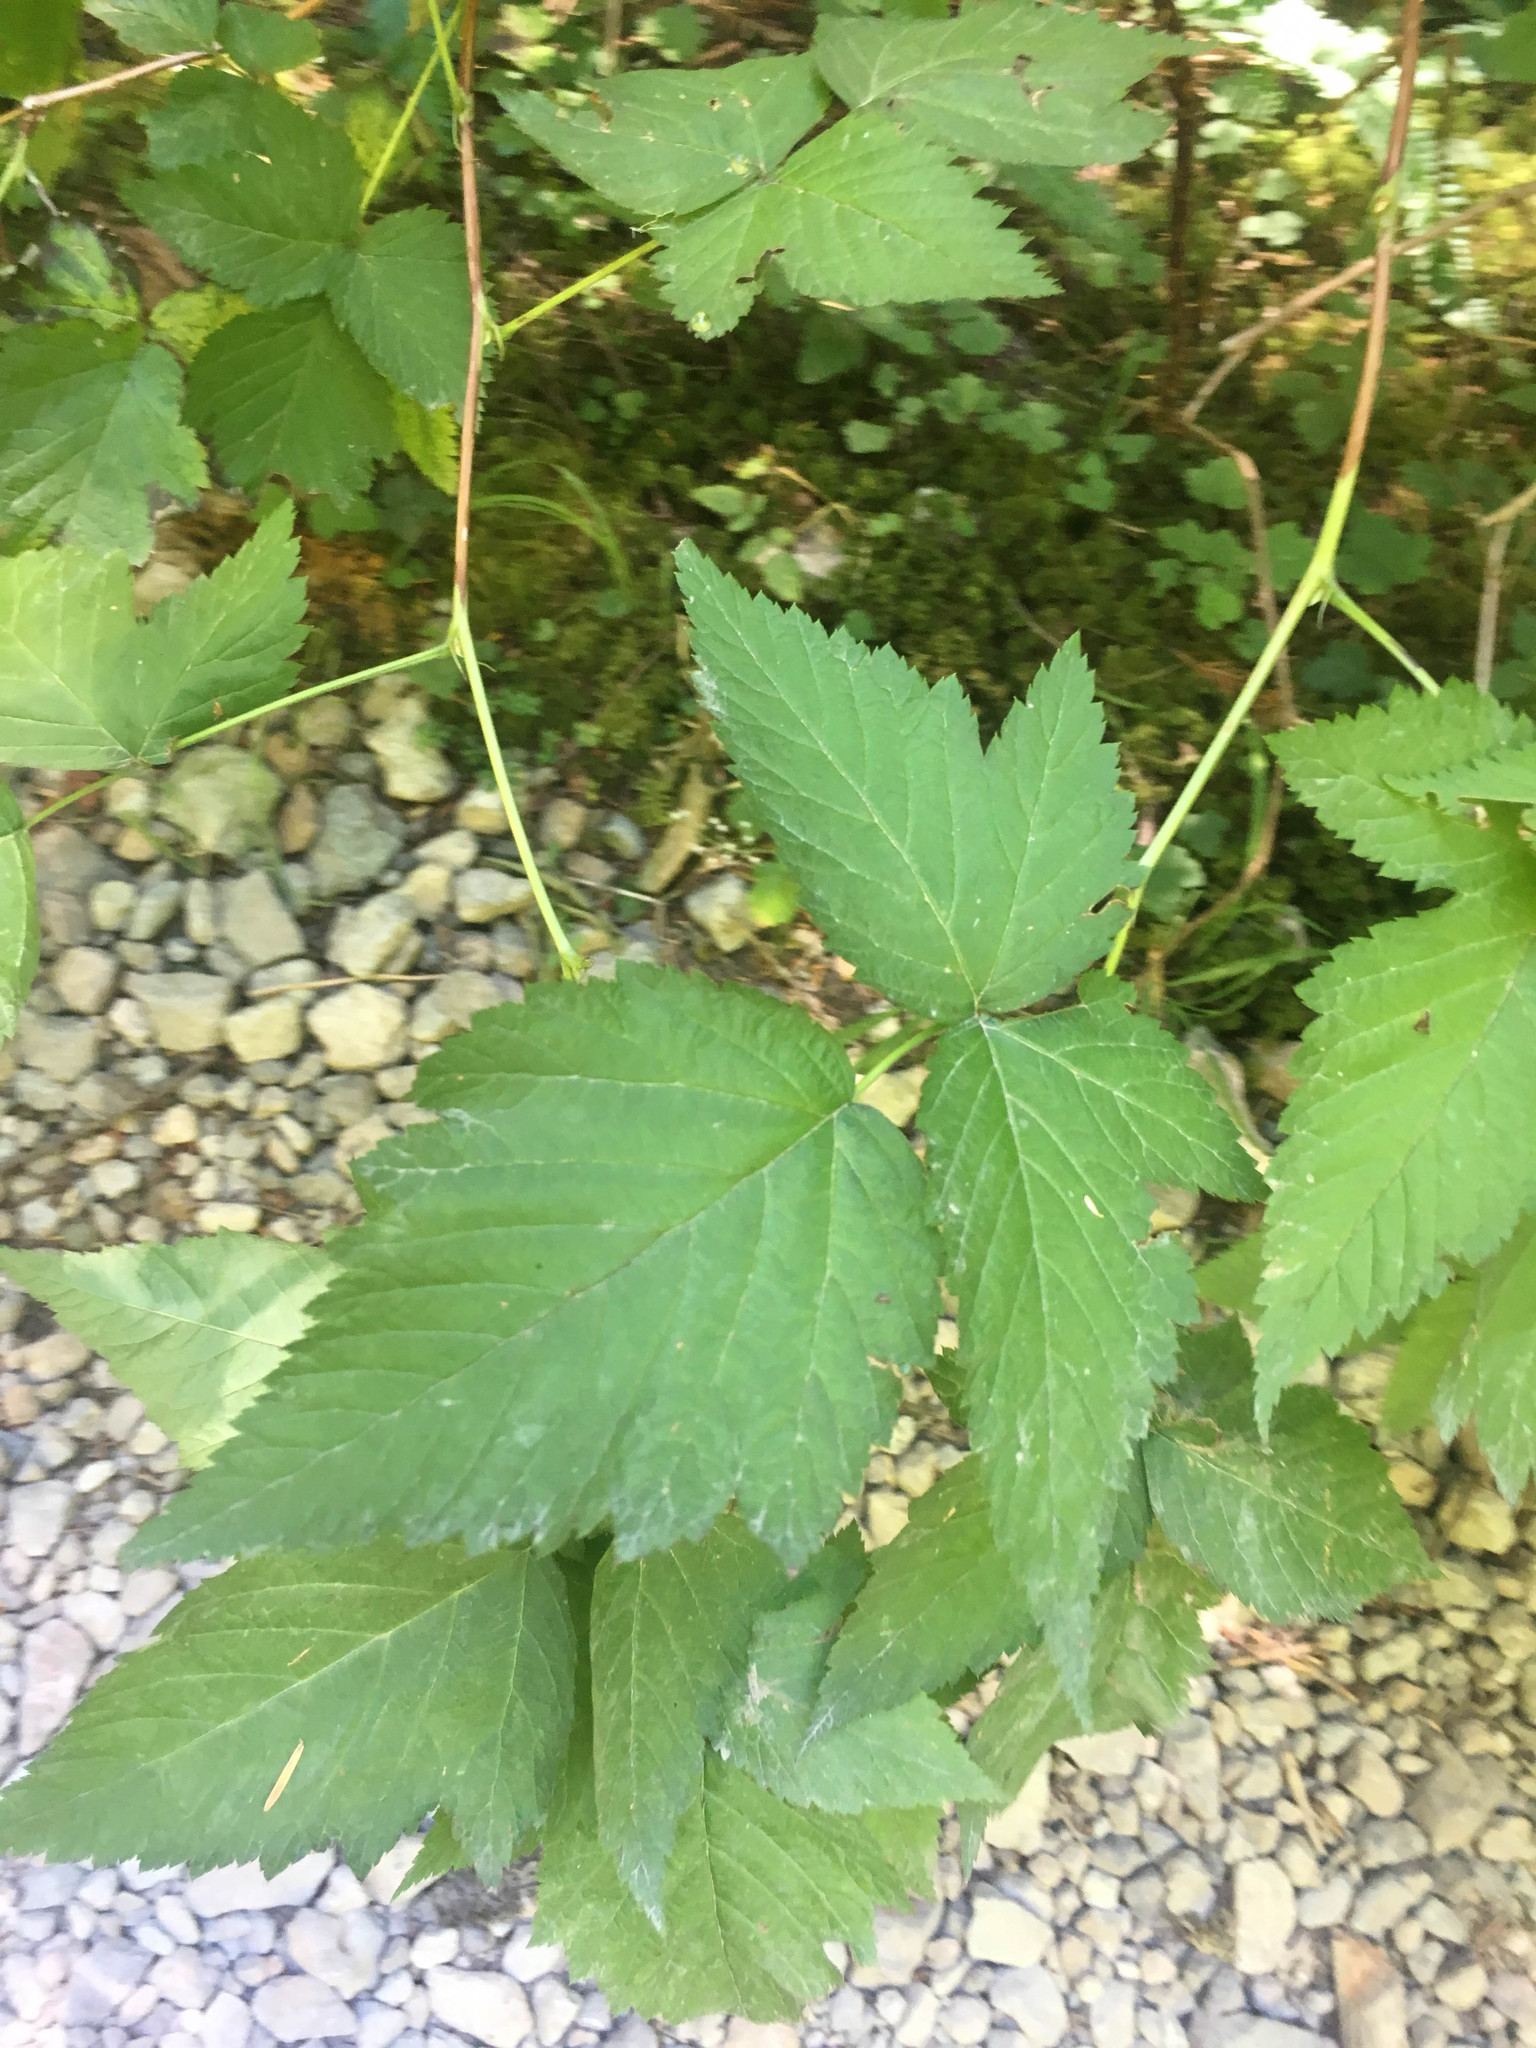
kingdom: Plantae
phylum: Tracheophyta
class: Magnoliopsida
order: Rosales
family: Rosaceae
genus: Rubus
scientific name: Rubus spectabilis
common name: Salmonberry
